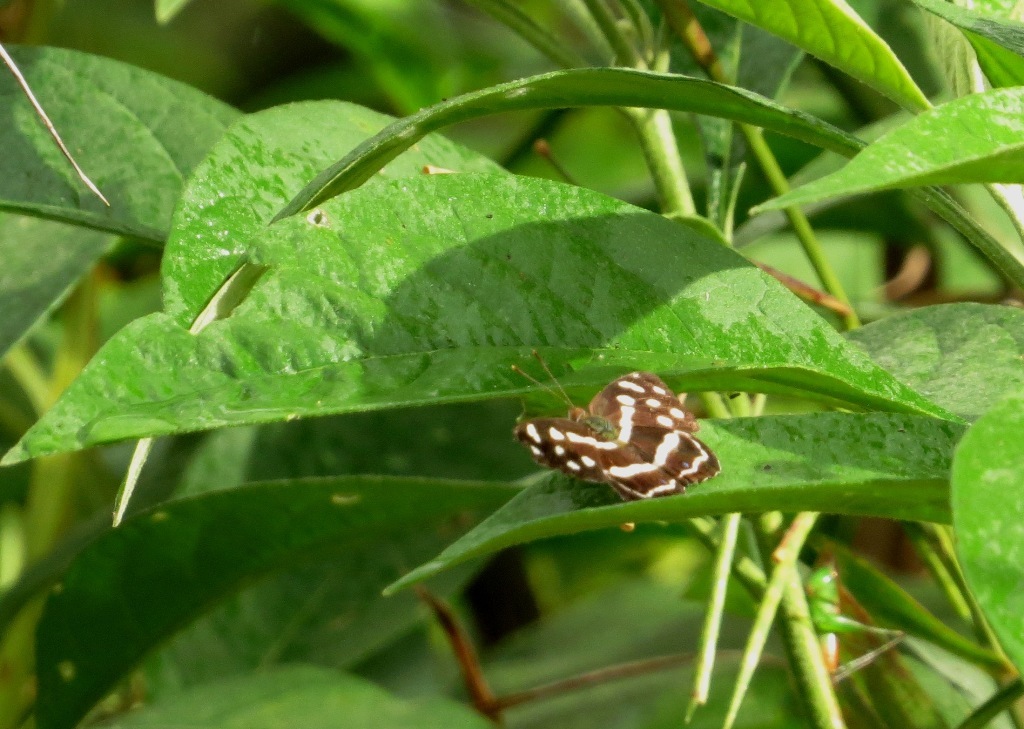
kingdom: Animalia
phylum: Arthropoda
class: Insecta
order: Lepidoptera
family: Nymphalidae
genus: Dynamine
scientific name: Dynamine mylitta
